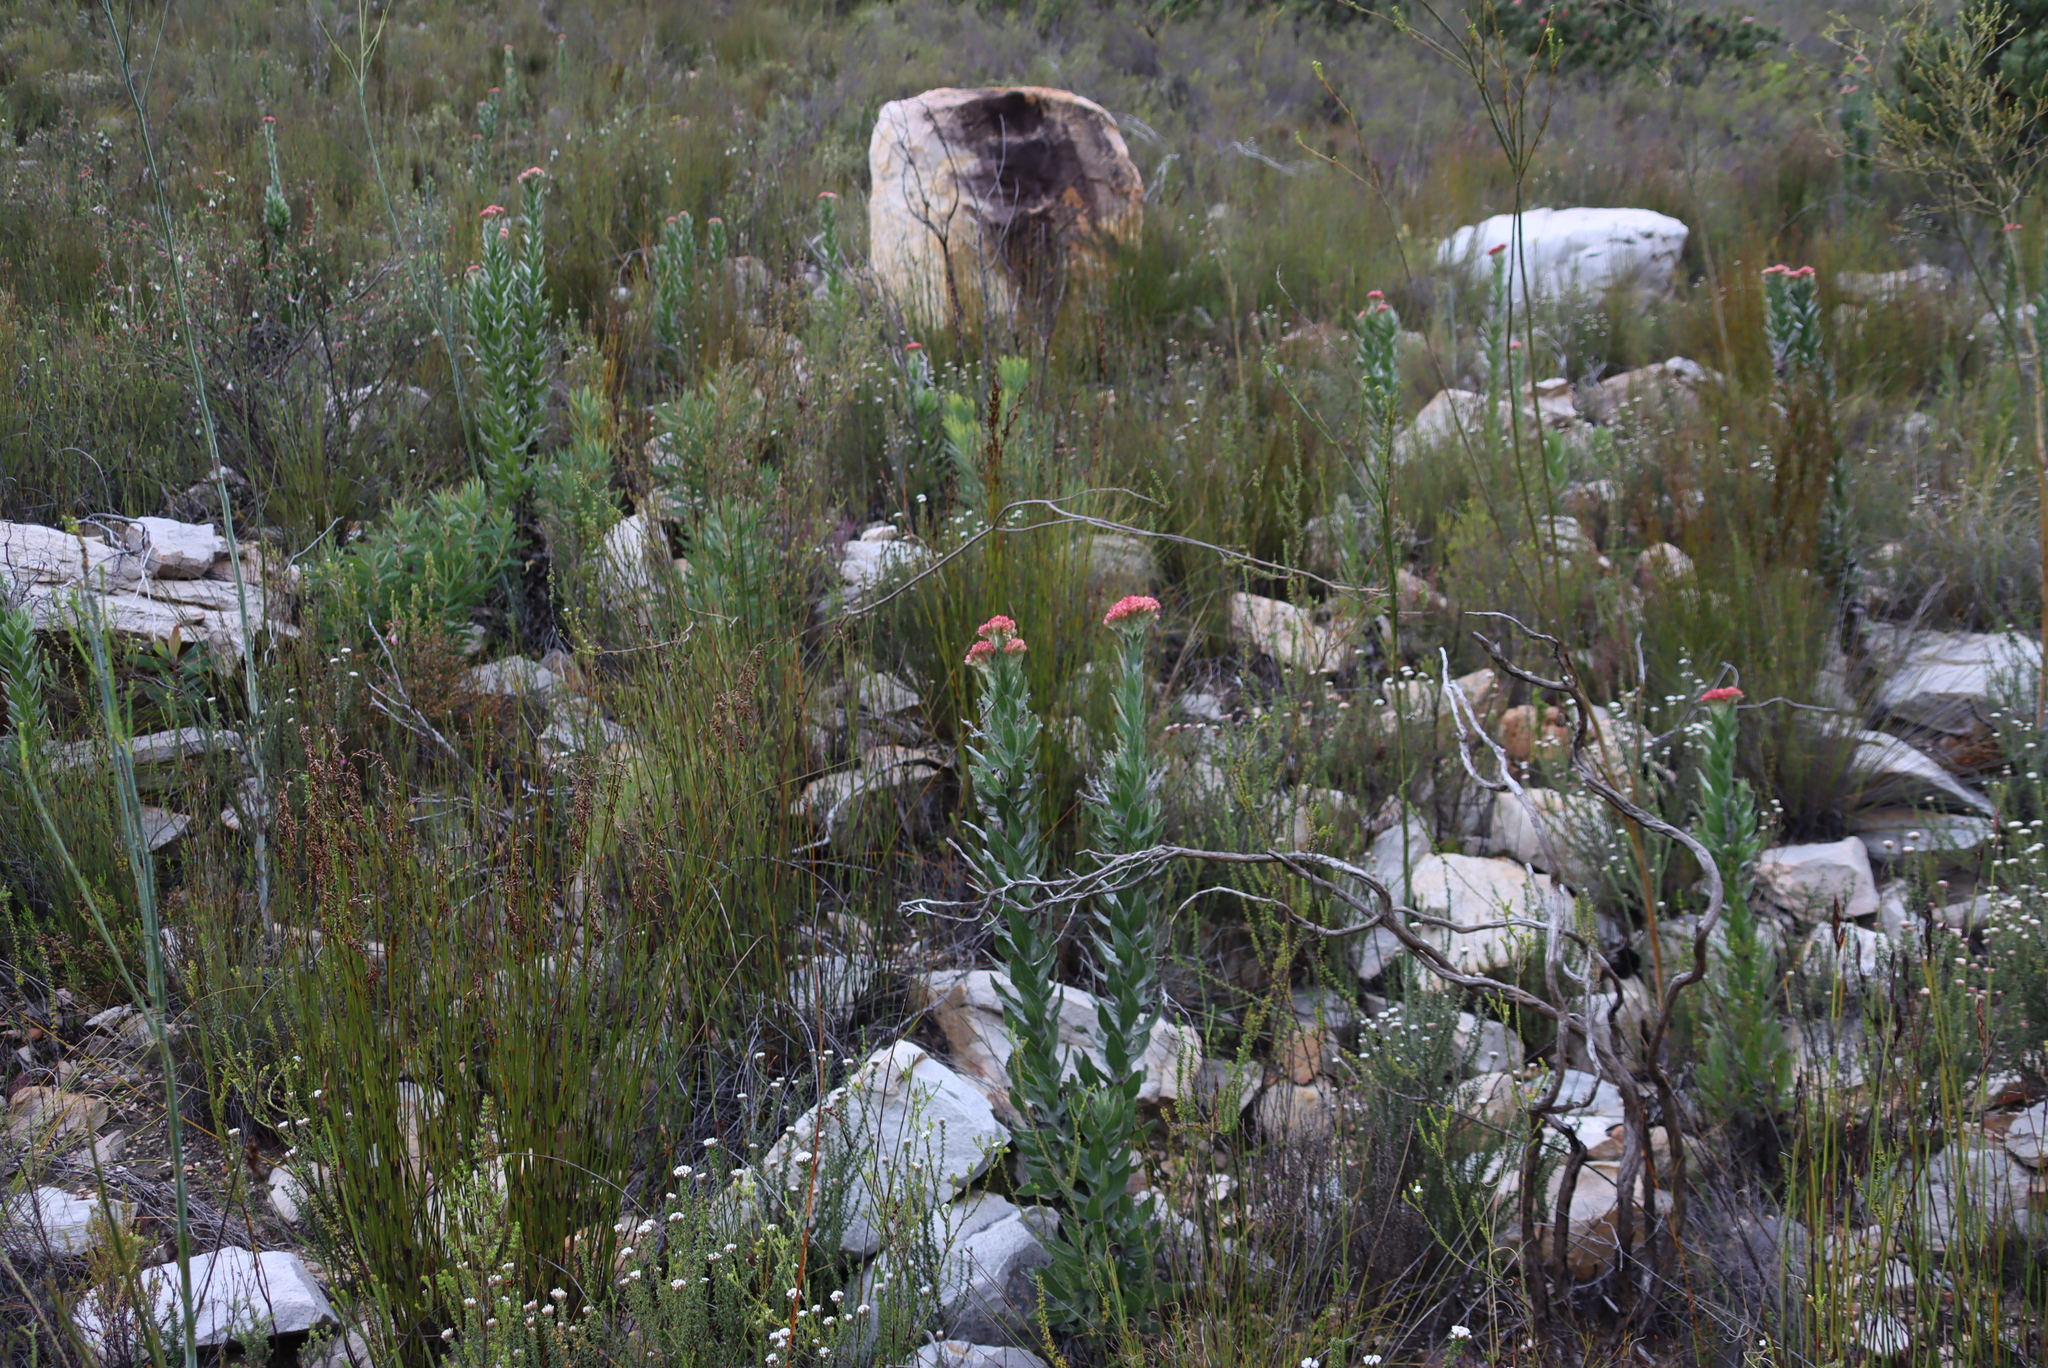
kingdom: Plantae
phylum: Tracheophyta
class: Magnoliopsida
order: Asterales
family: Asteraceae
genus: Syncarpha
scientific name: Syncarpha milleflora
